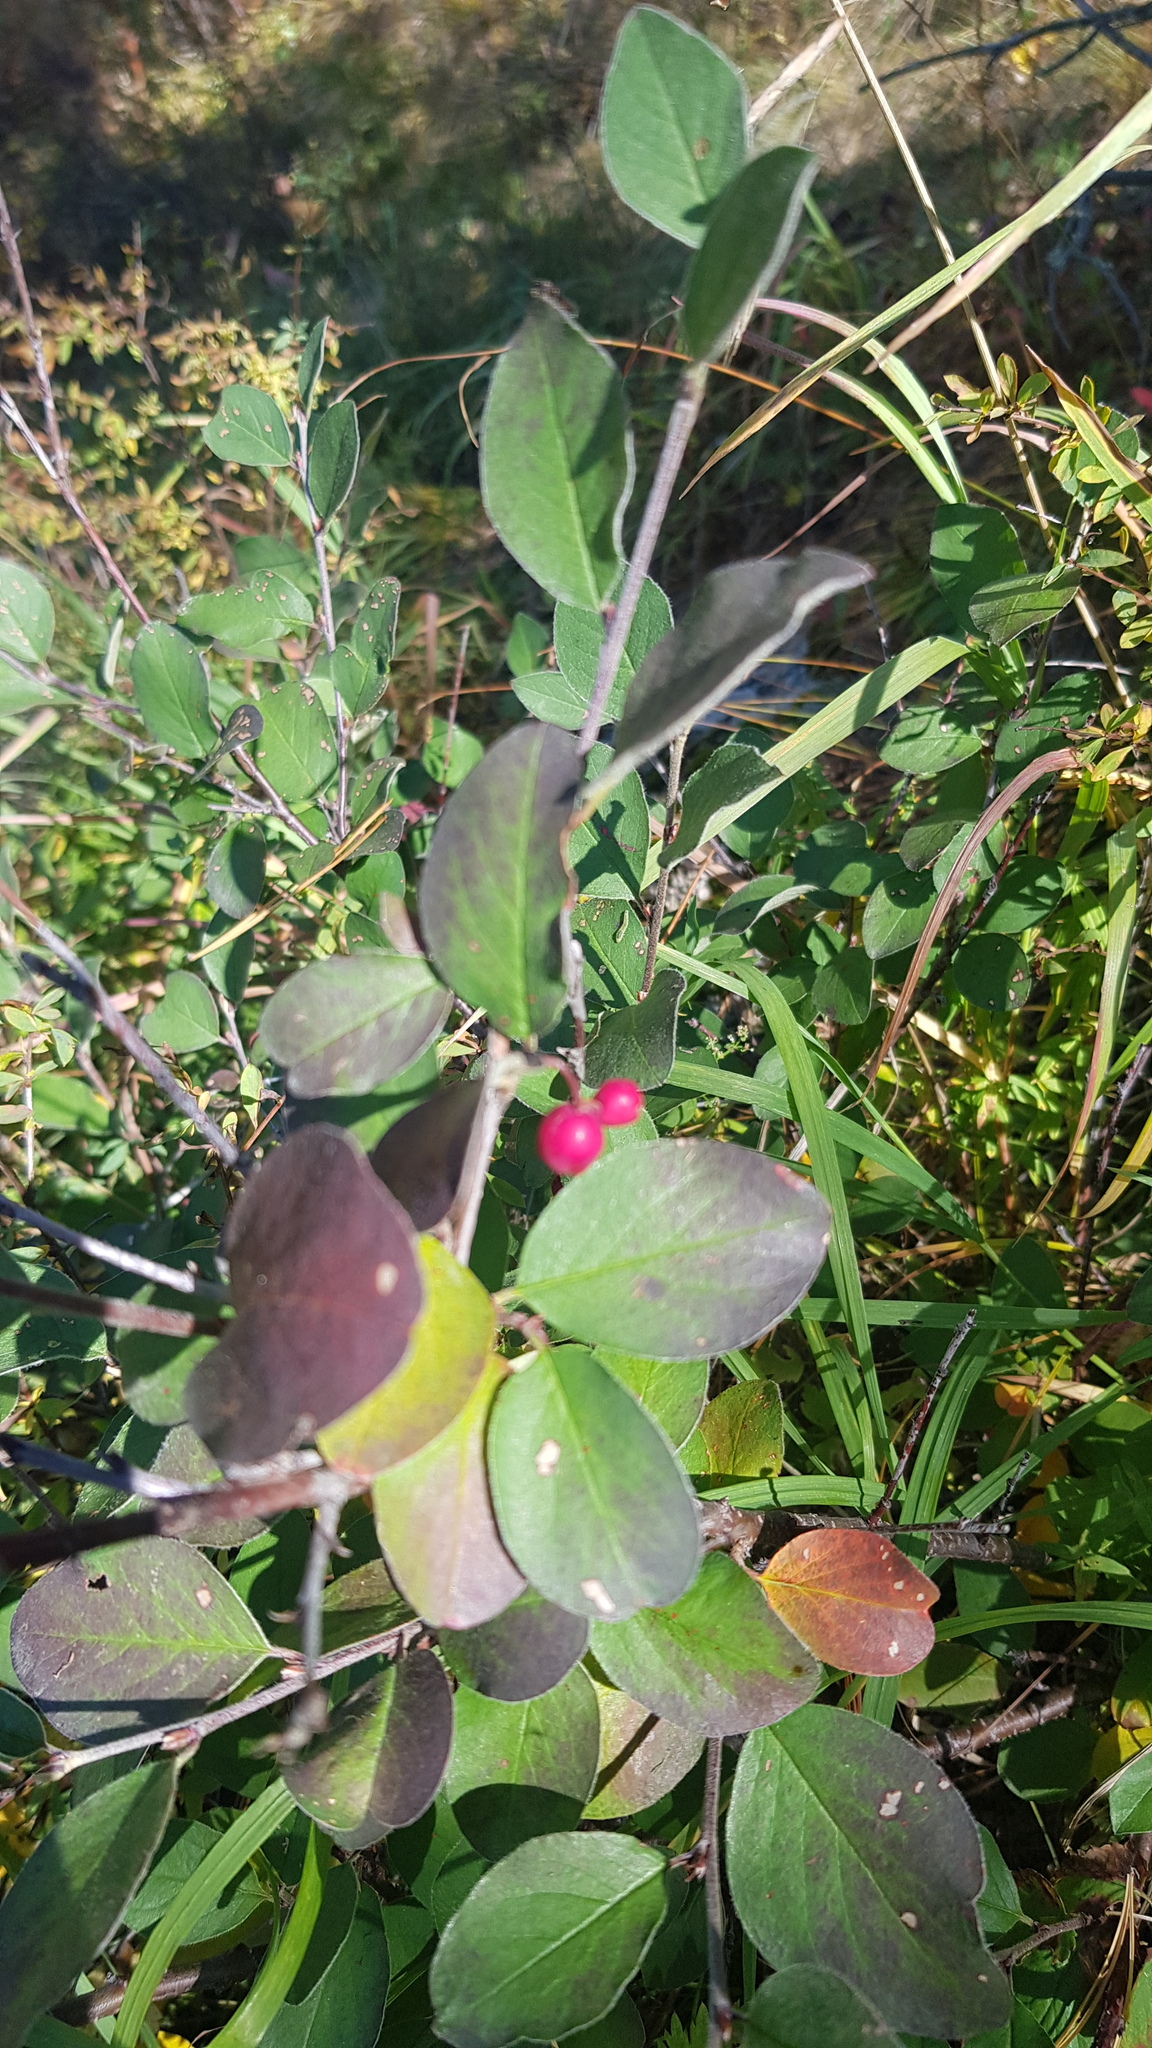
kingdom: Plantae
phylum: Tracheophyta
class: Magnoliopsida
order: Rosales
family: Rosaceae
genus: Cotoneaster
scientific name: Cotoneaster melanocarpus
